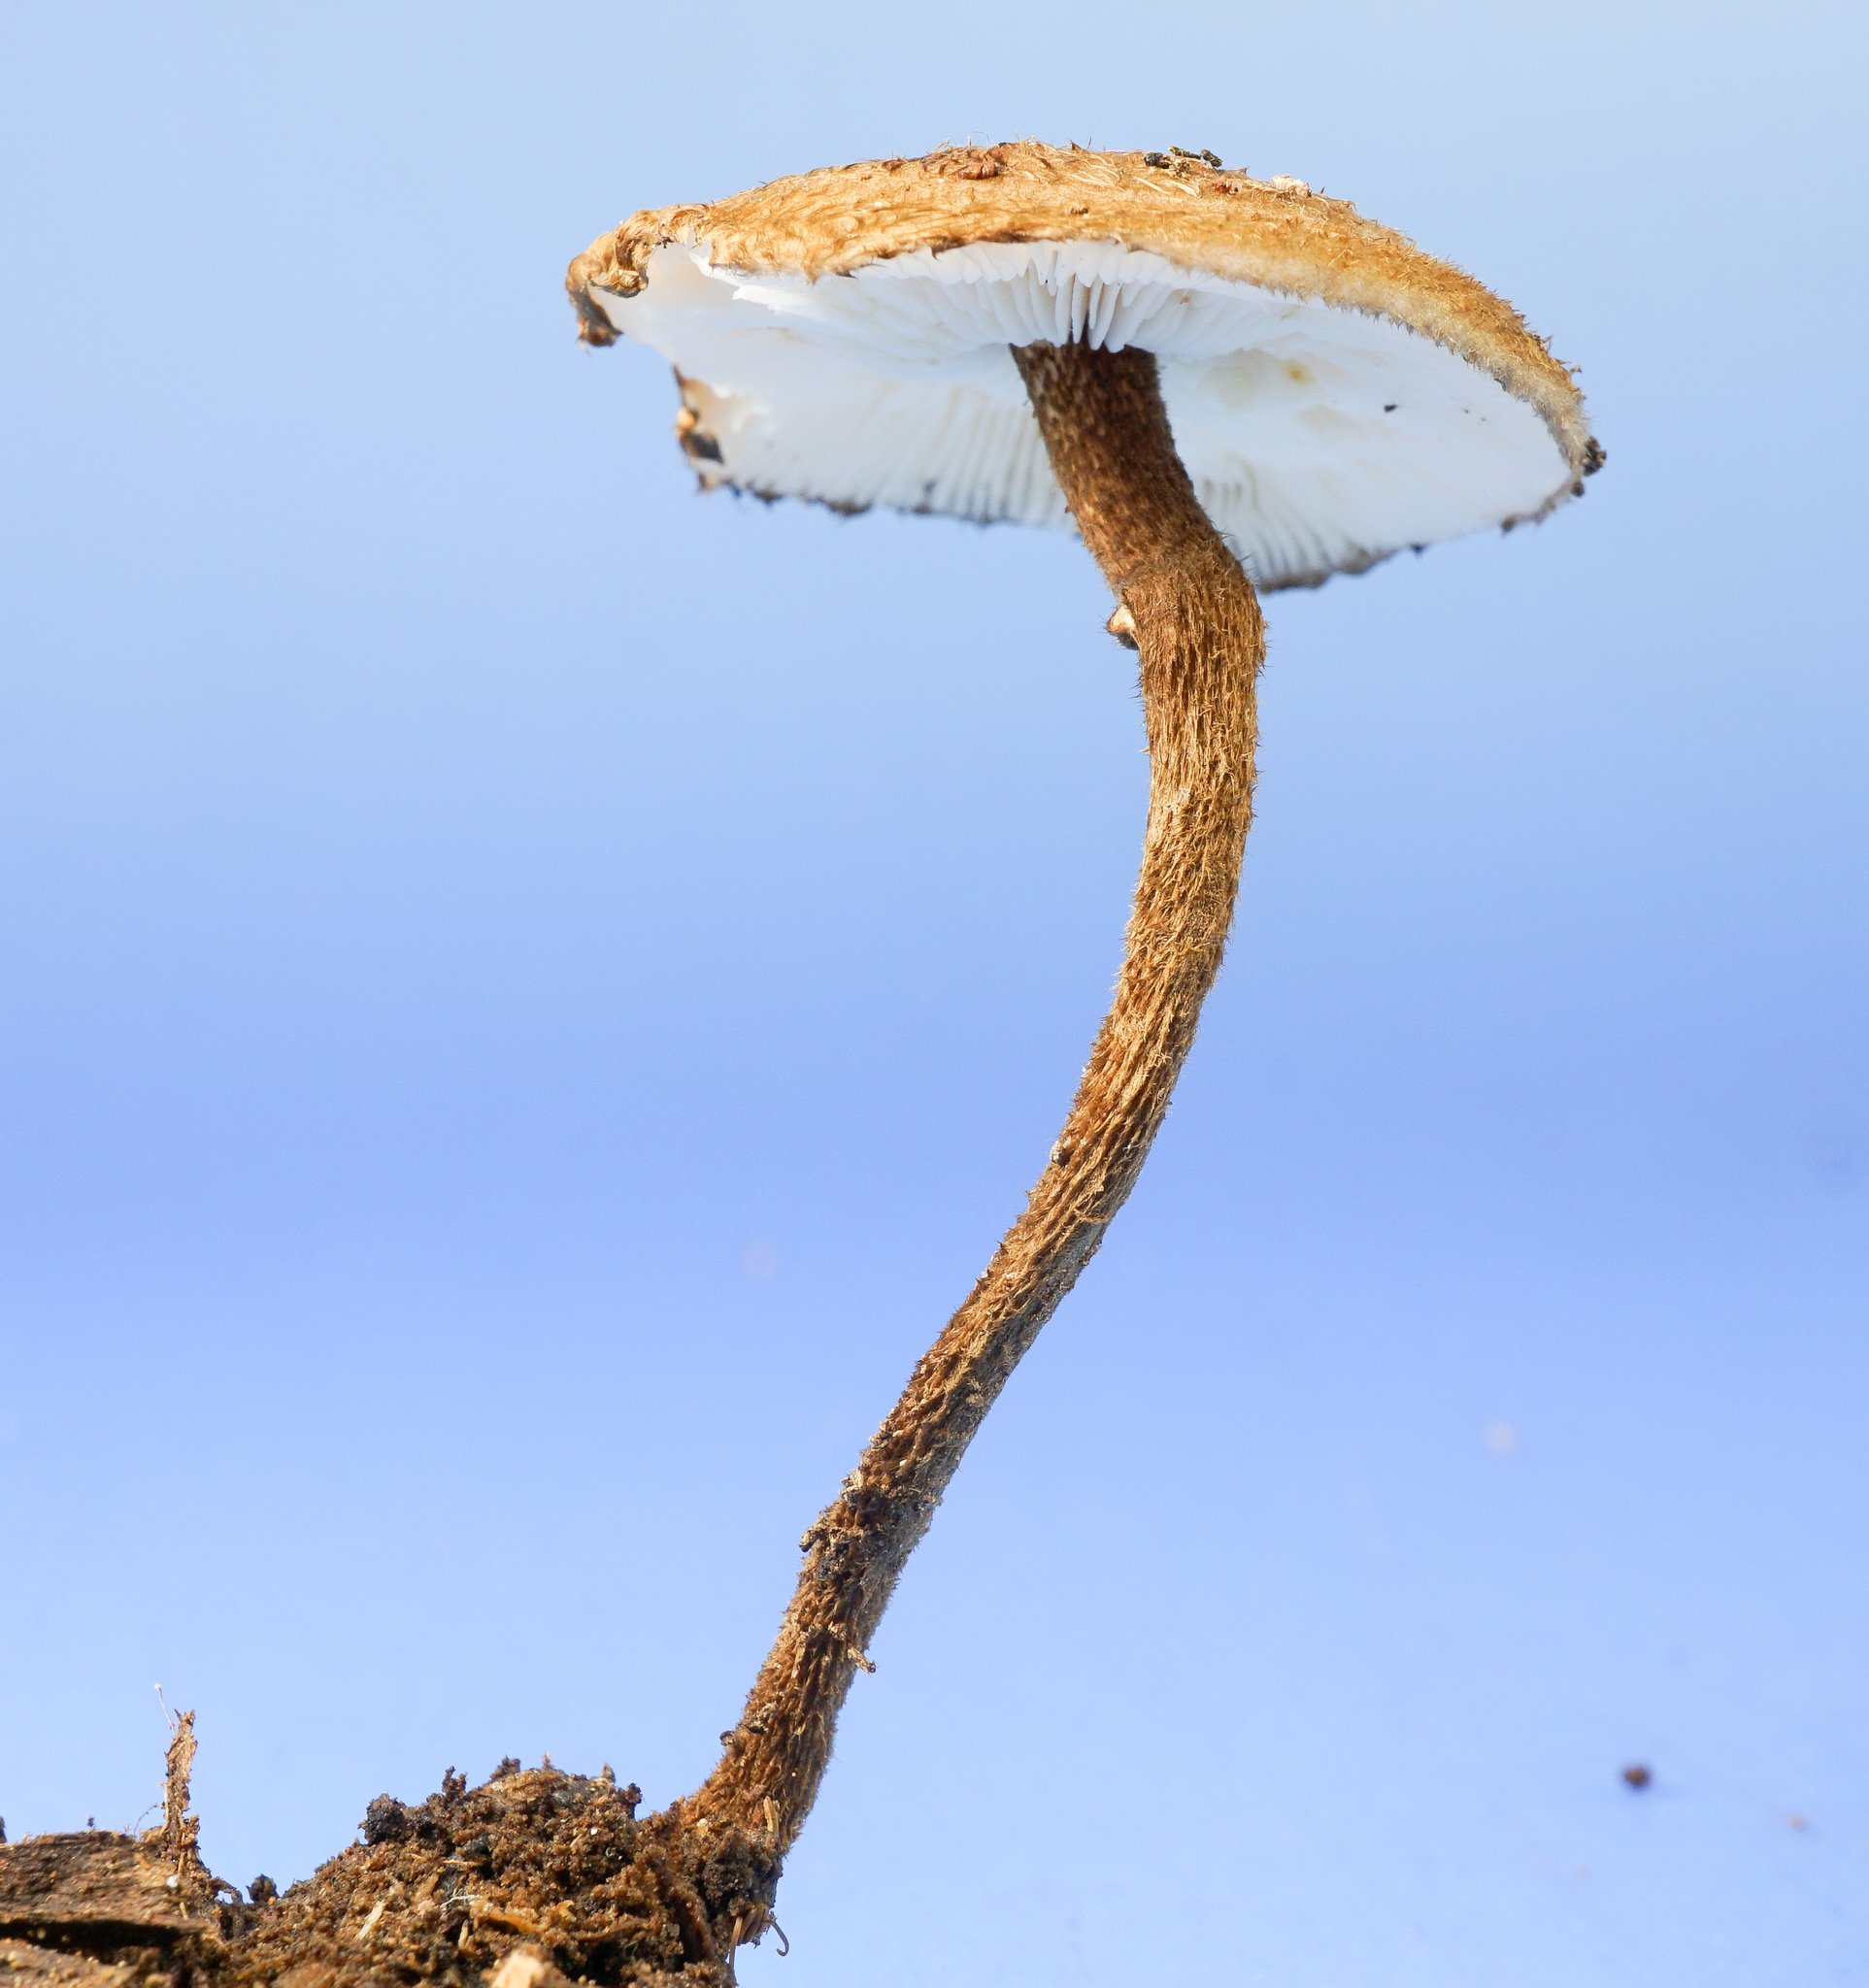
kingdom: Fungi
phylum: Basidiomycota
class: Agaricomycetes
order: Agaricales
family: Tricholomataceae
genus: Collybia
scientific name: Collybia zonata
